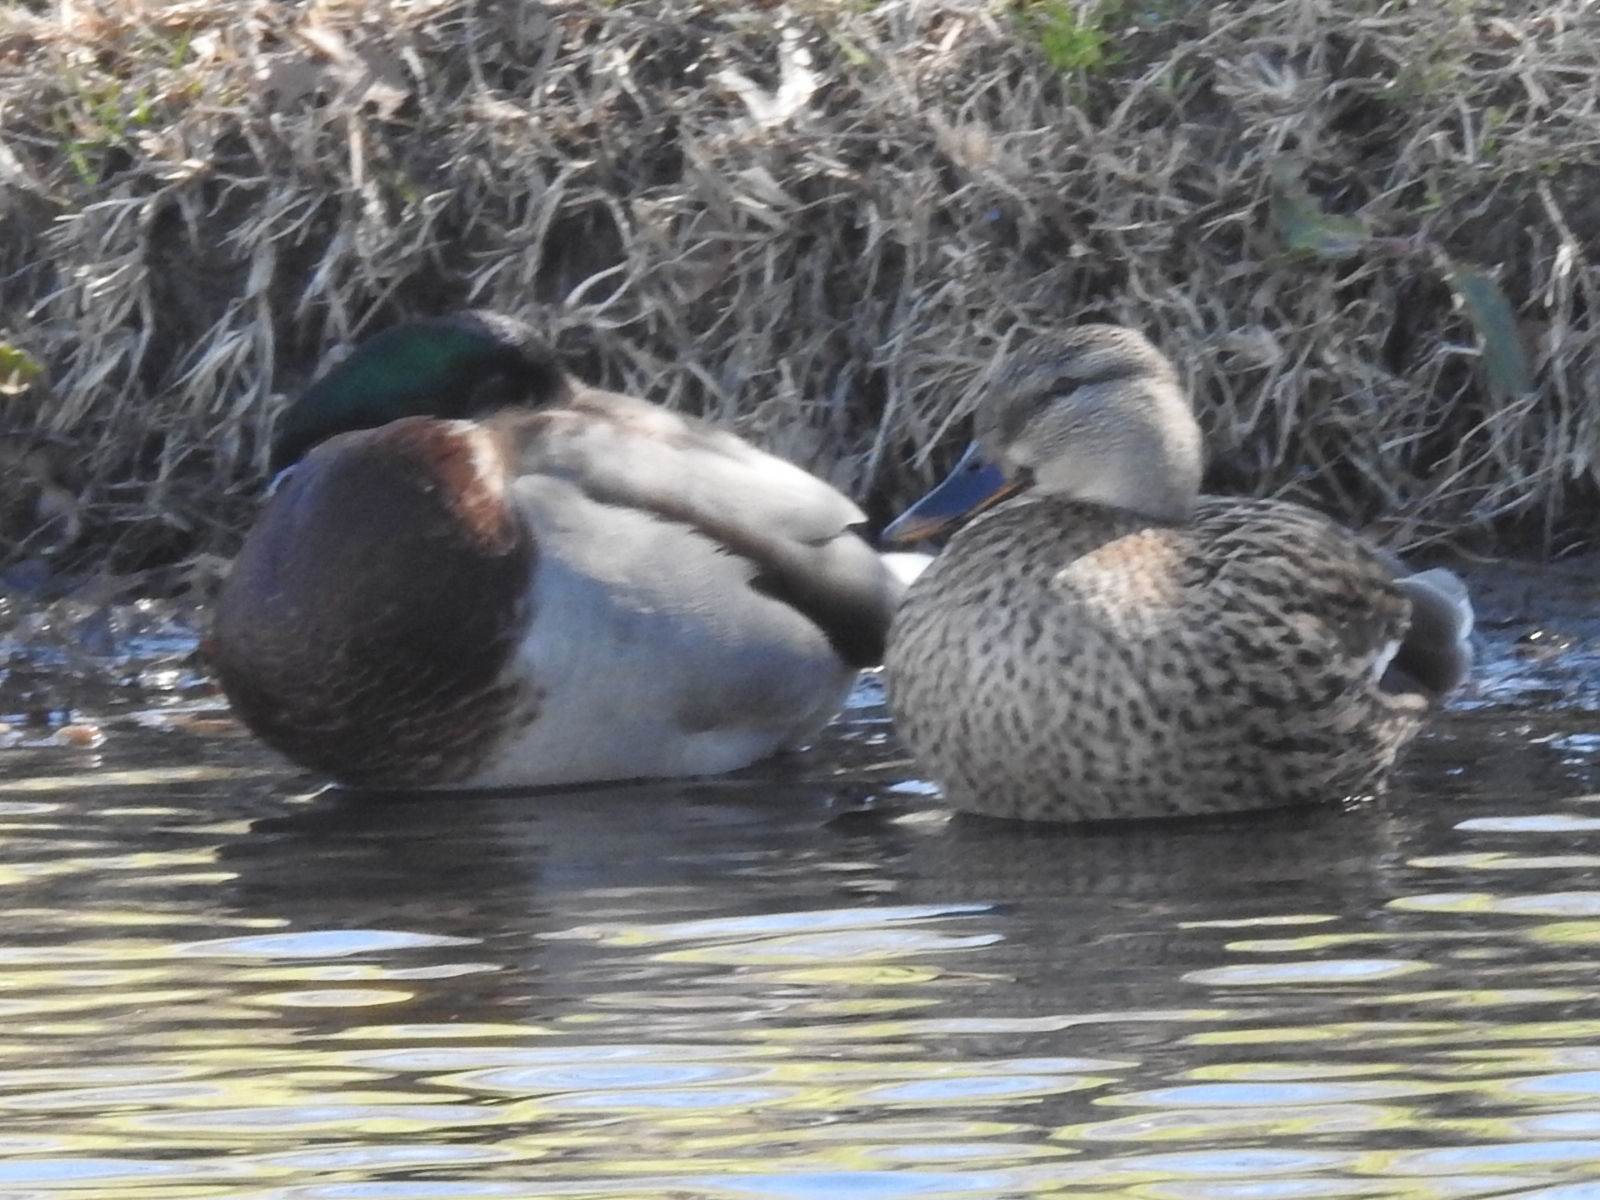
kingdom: Animalia
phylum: Chordata
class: Aves
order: Anseriformes
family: Anatidae
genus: Anas
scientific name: Anas platyrhynchos
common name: Mallard
